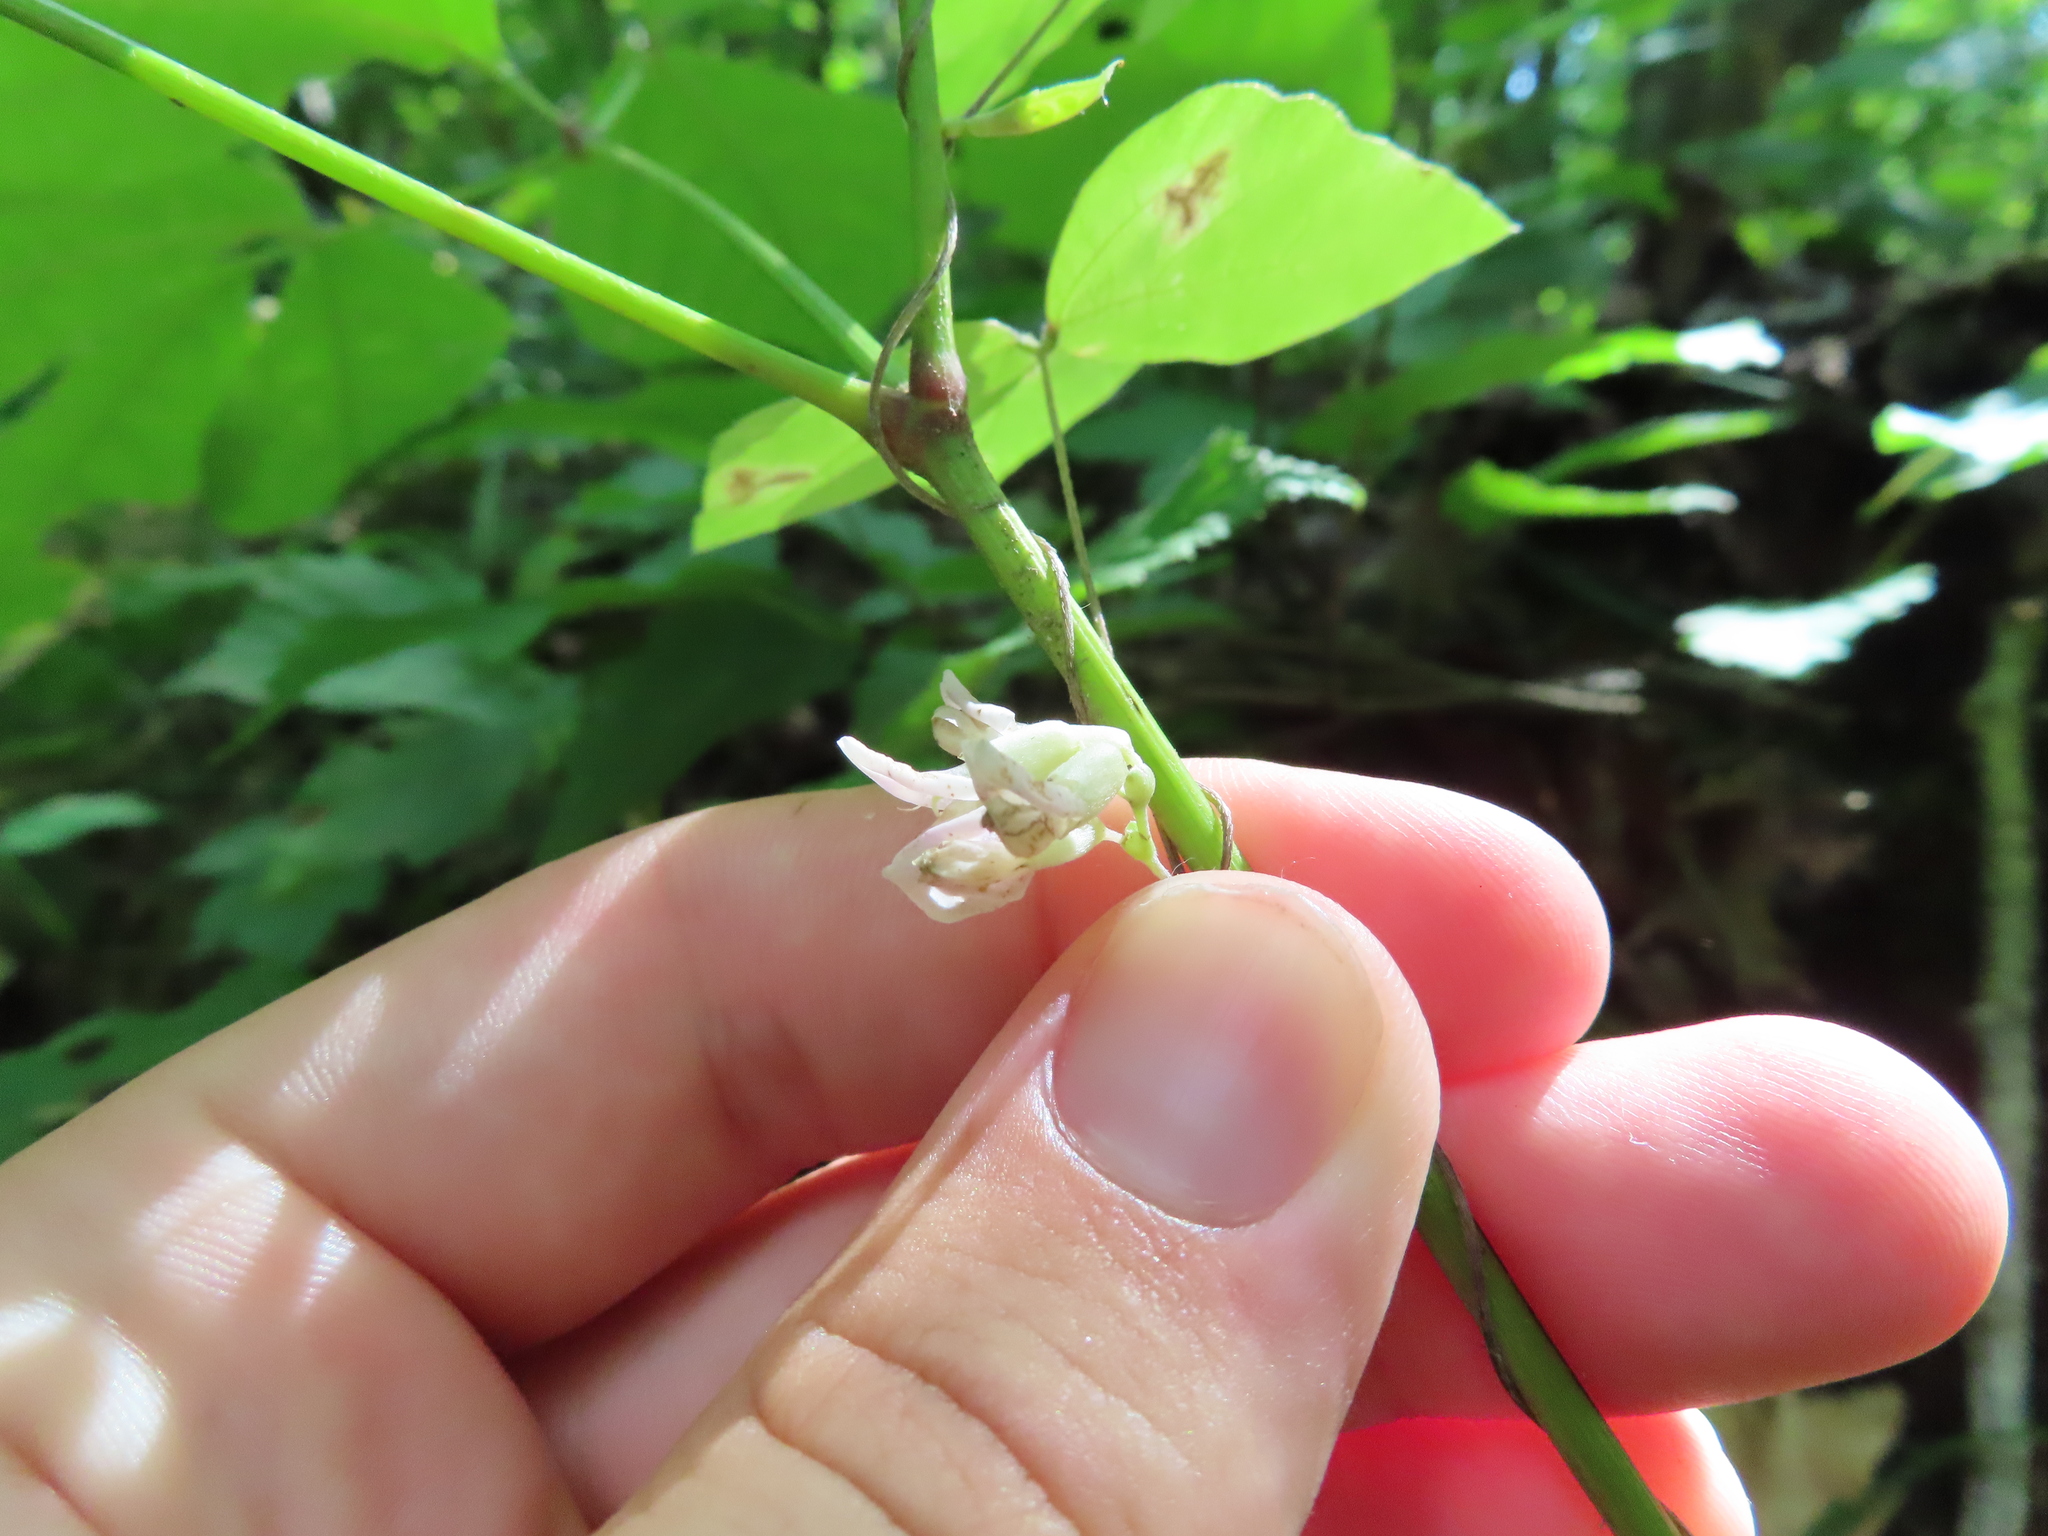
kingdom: Plantae
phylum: Tracheophyta
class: Magnoliopsida
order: Fabales
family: Fabaceae
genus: Amphicarpaea
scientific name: Amphicarpaea bracteata
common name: American hog peanut
